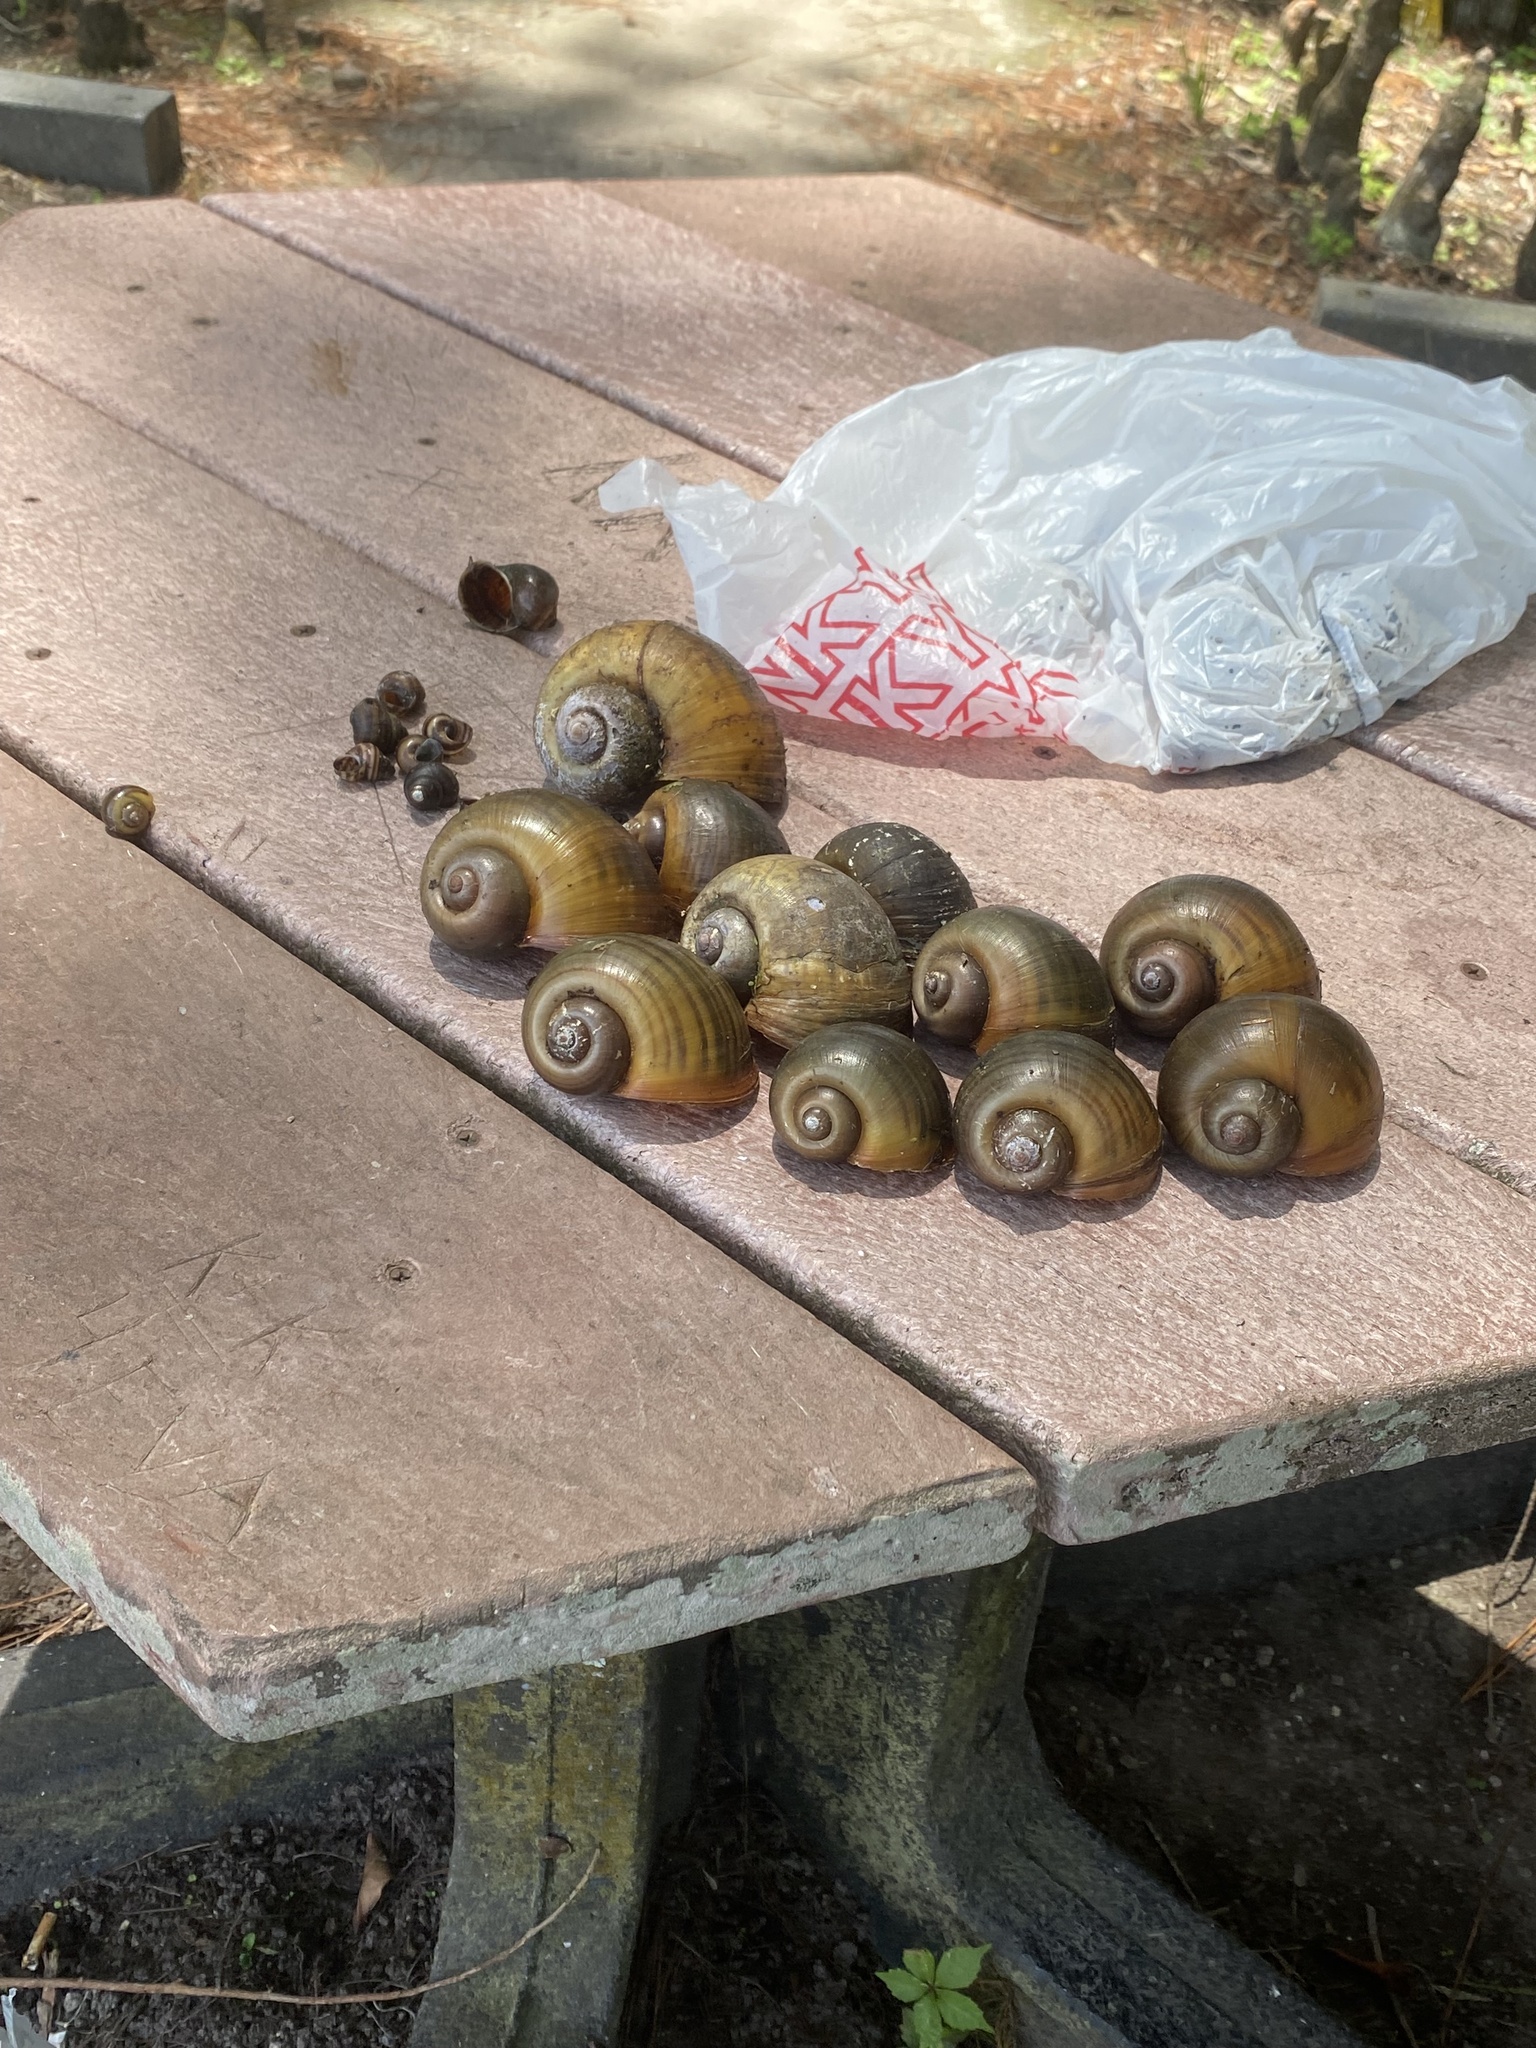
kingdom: Animalia
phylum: Mollusca
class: Gastropoda
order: Architaenioglossa
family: Ampullariidae
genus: Pomacea
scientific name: Pomacea maculata
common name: Giant applesnail
